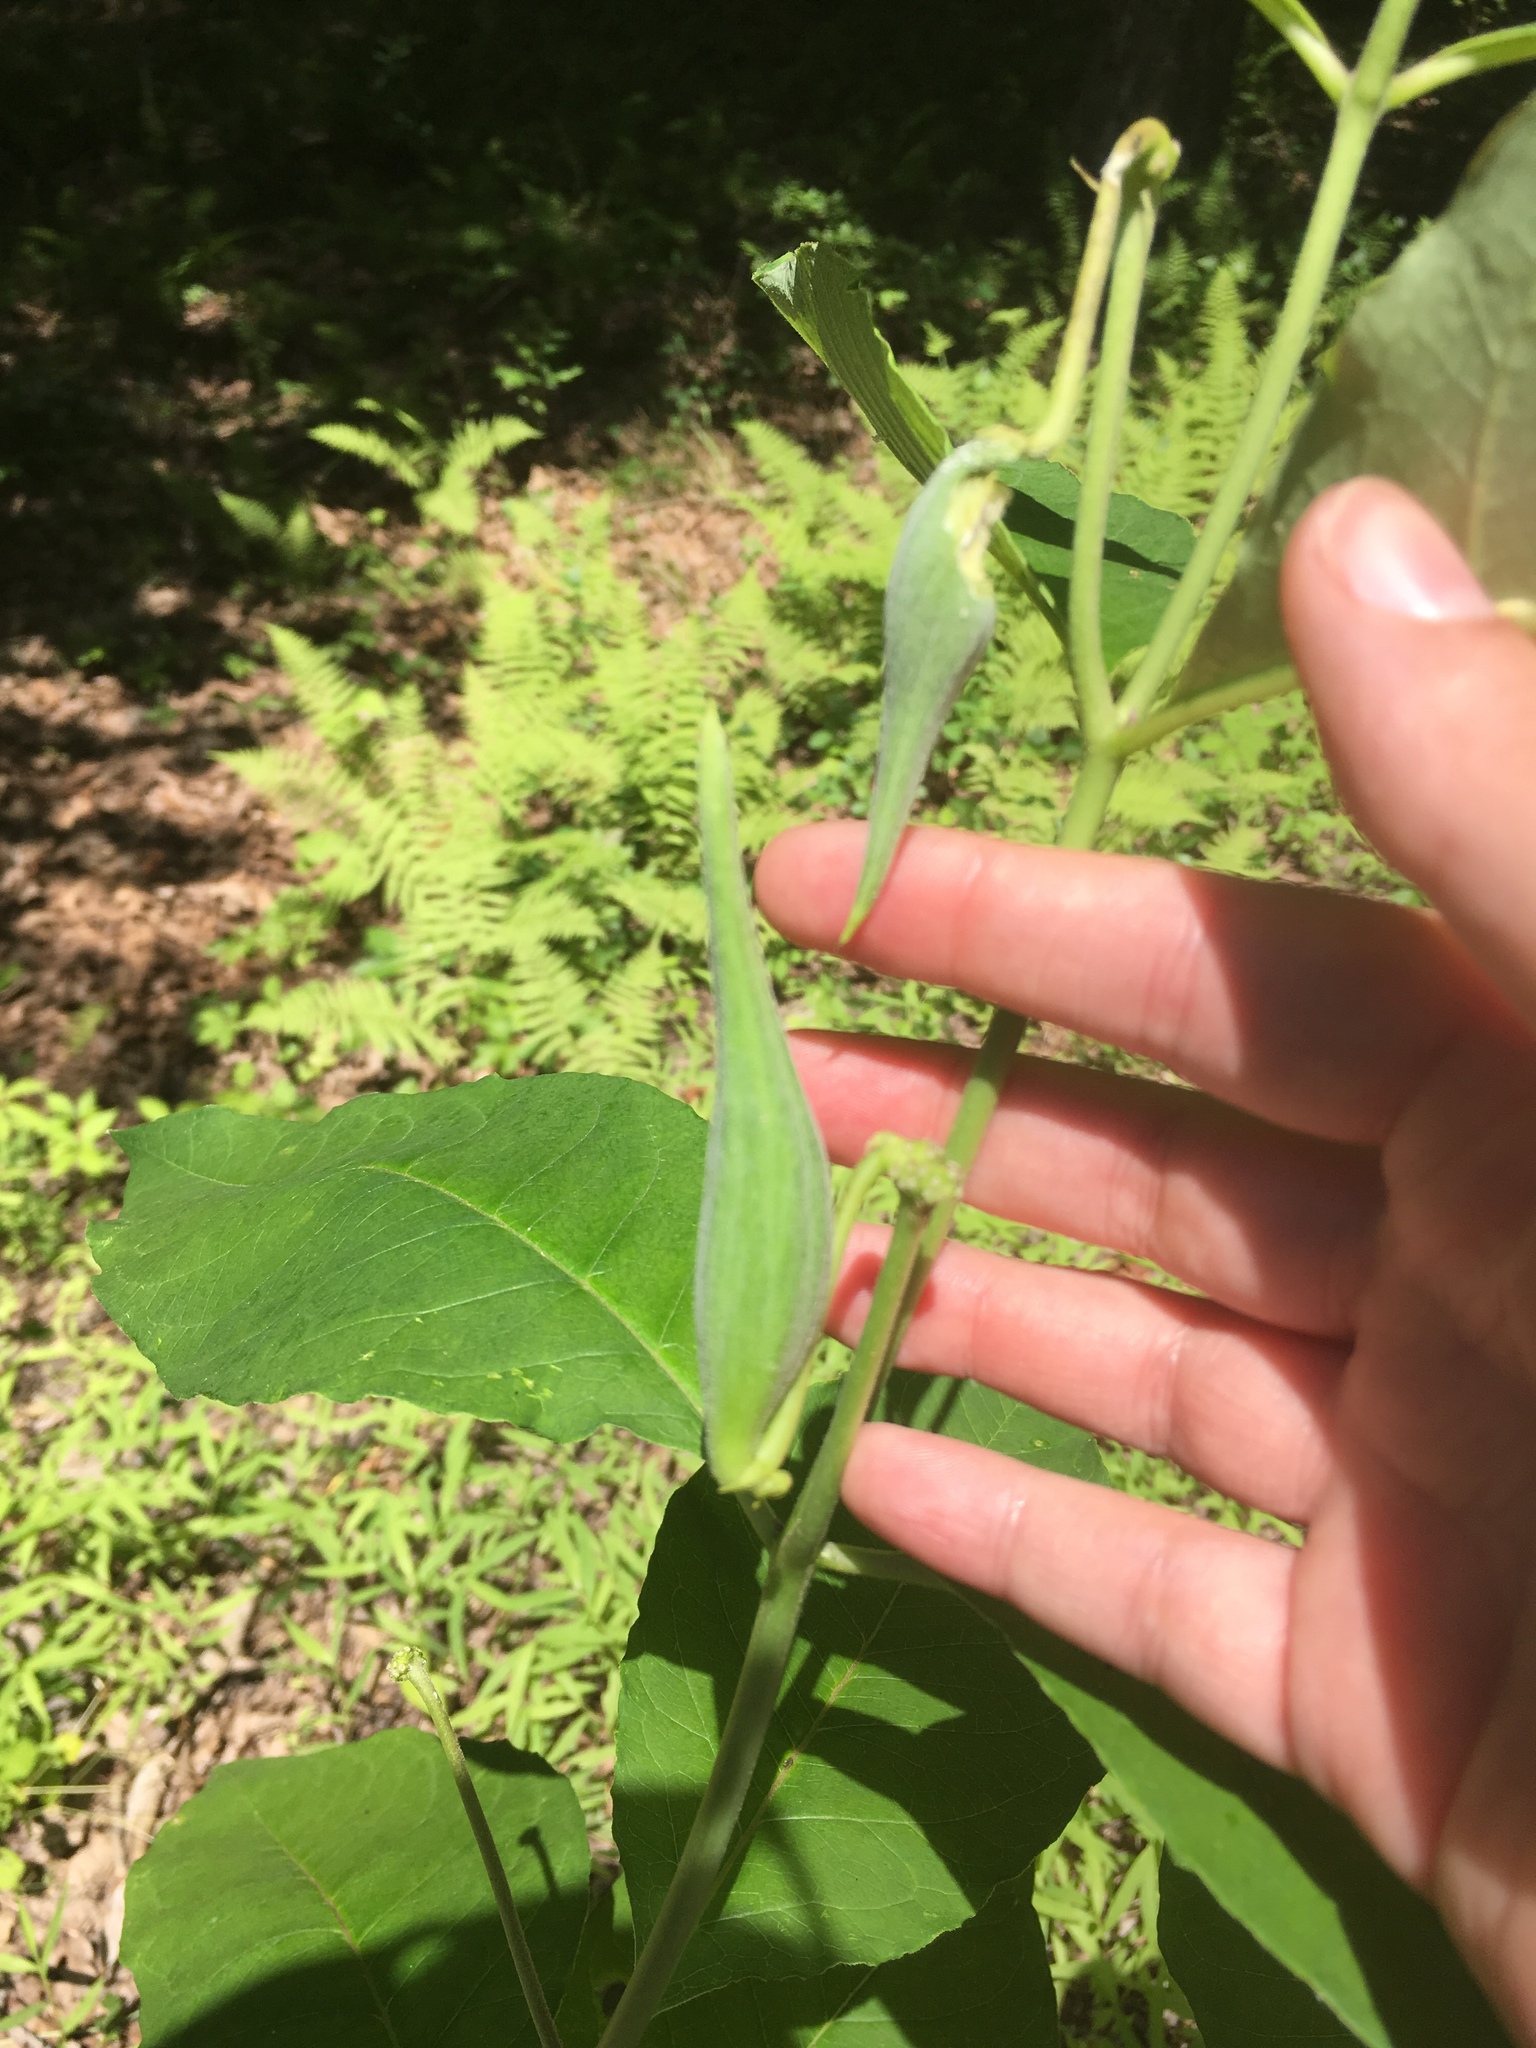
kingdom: Plantae
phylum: Tracheophyta
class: Magnoliopsida
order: Gentianales
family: Apocynaceae
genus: Asclepias
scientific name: Asclepias exaltata
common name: Poke milkweed
